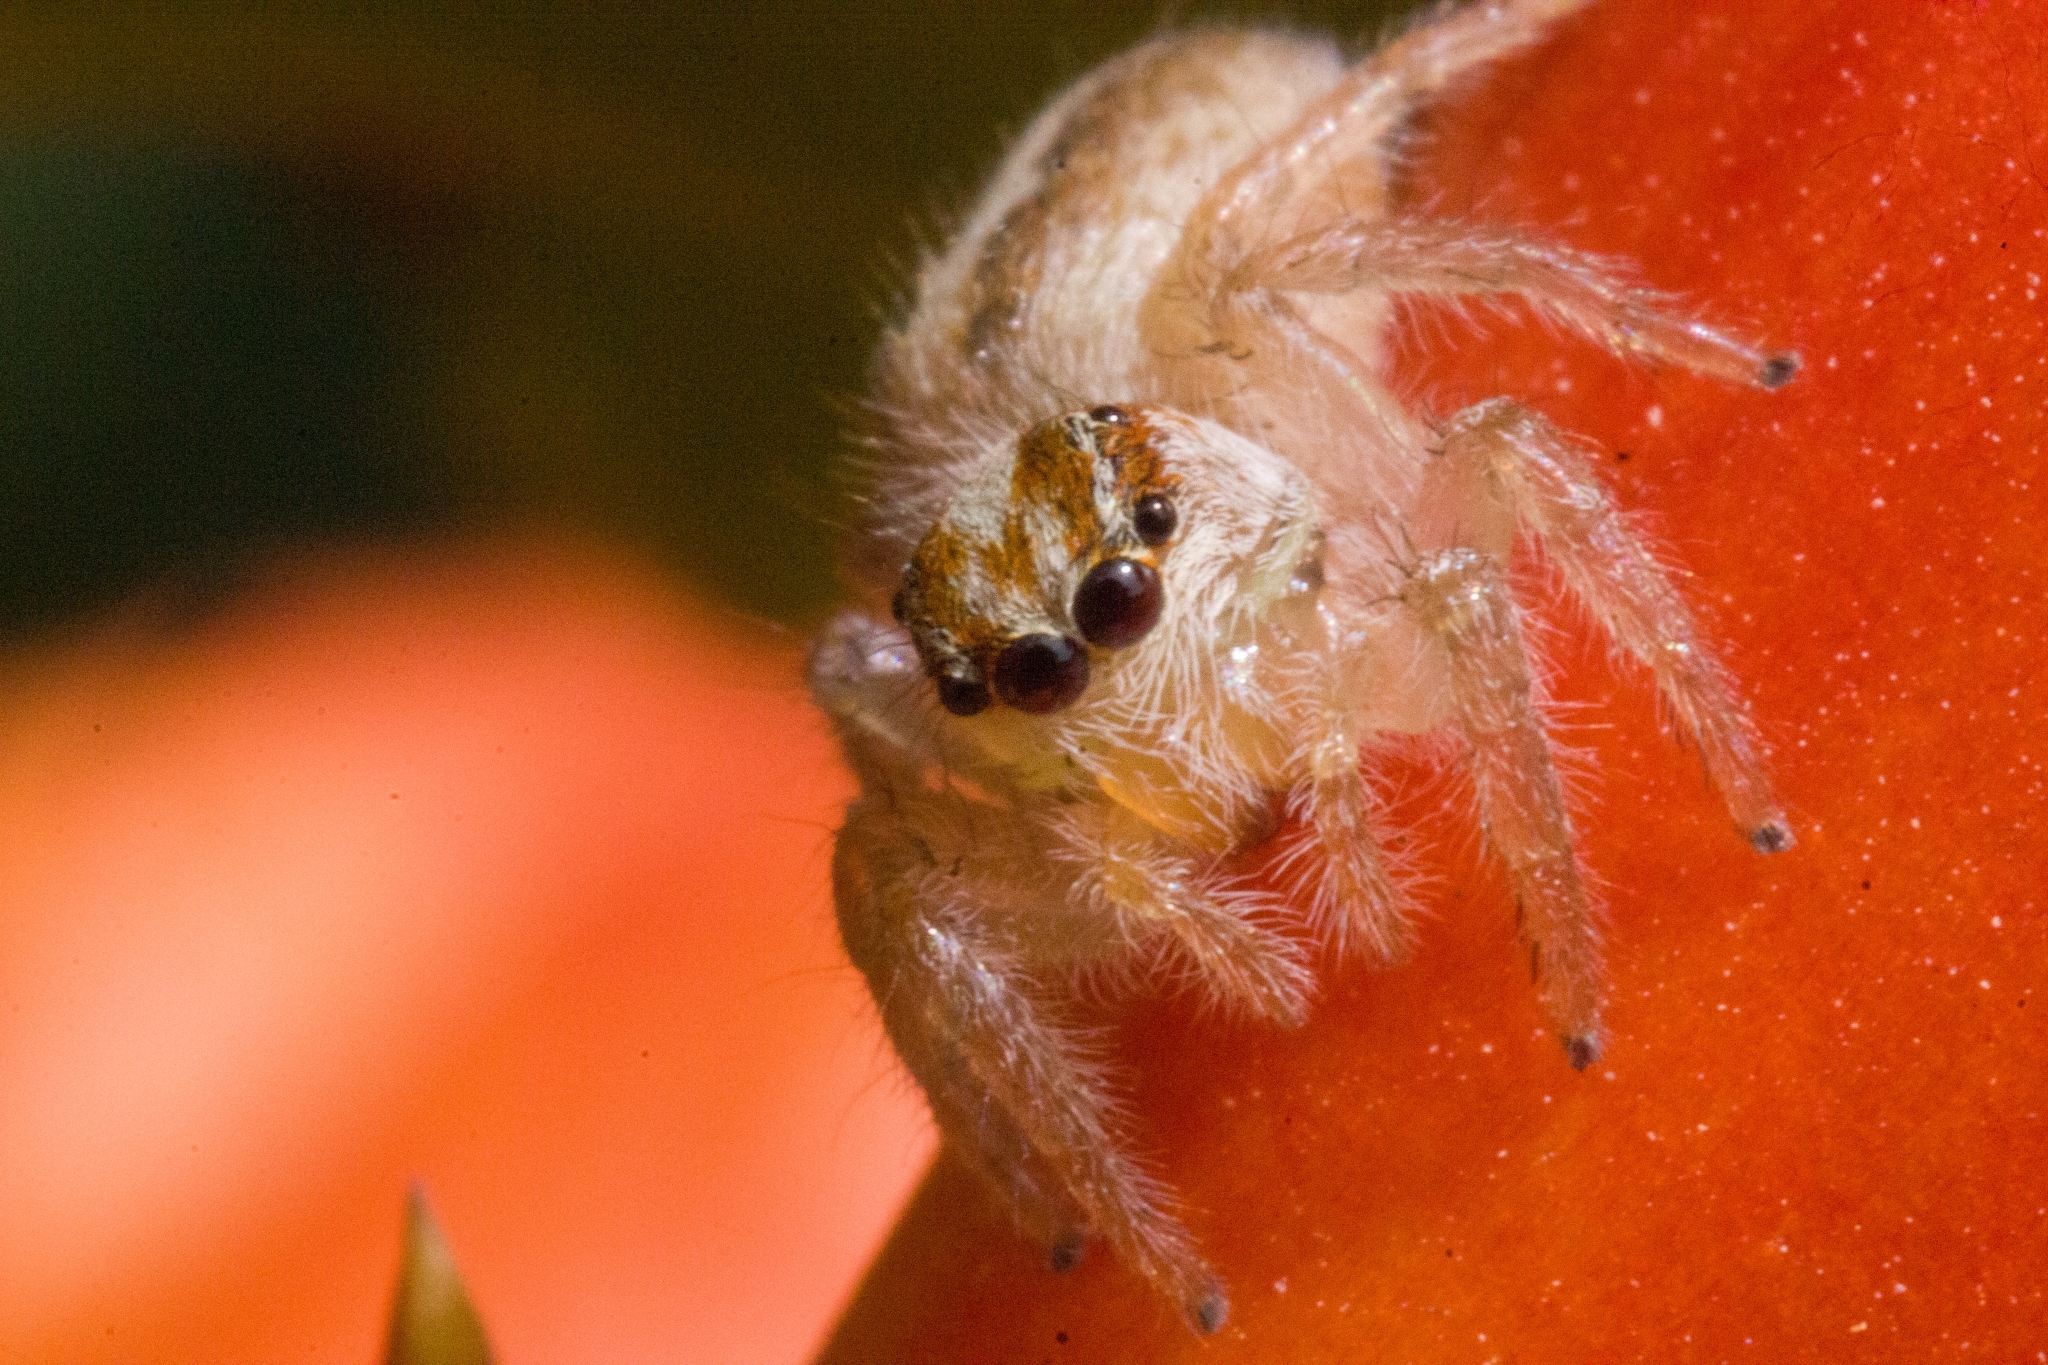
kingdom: Animalia
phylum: Arthropoda
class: Arachnida
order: Araneae
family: Salticidae
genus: Megafreya
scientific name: Megafreya sutrix
